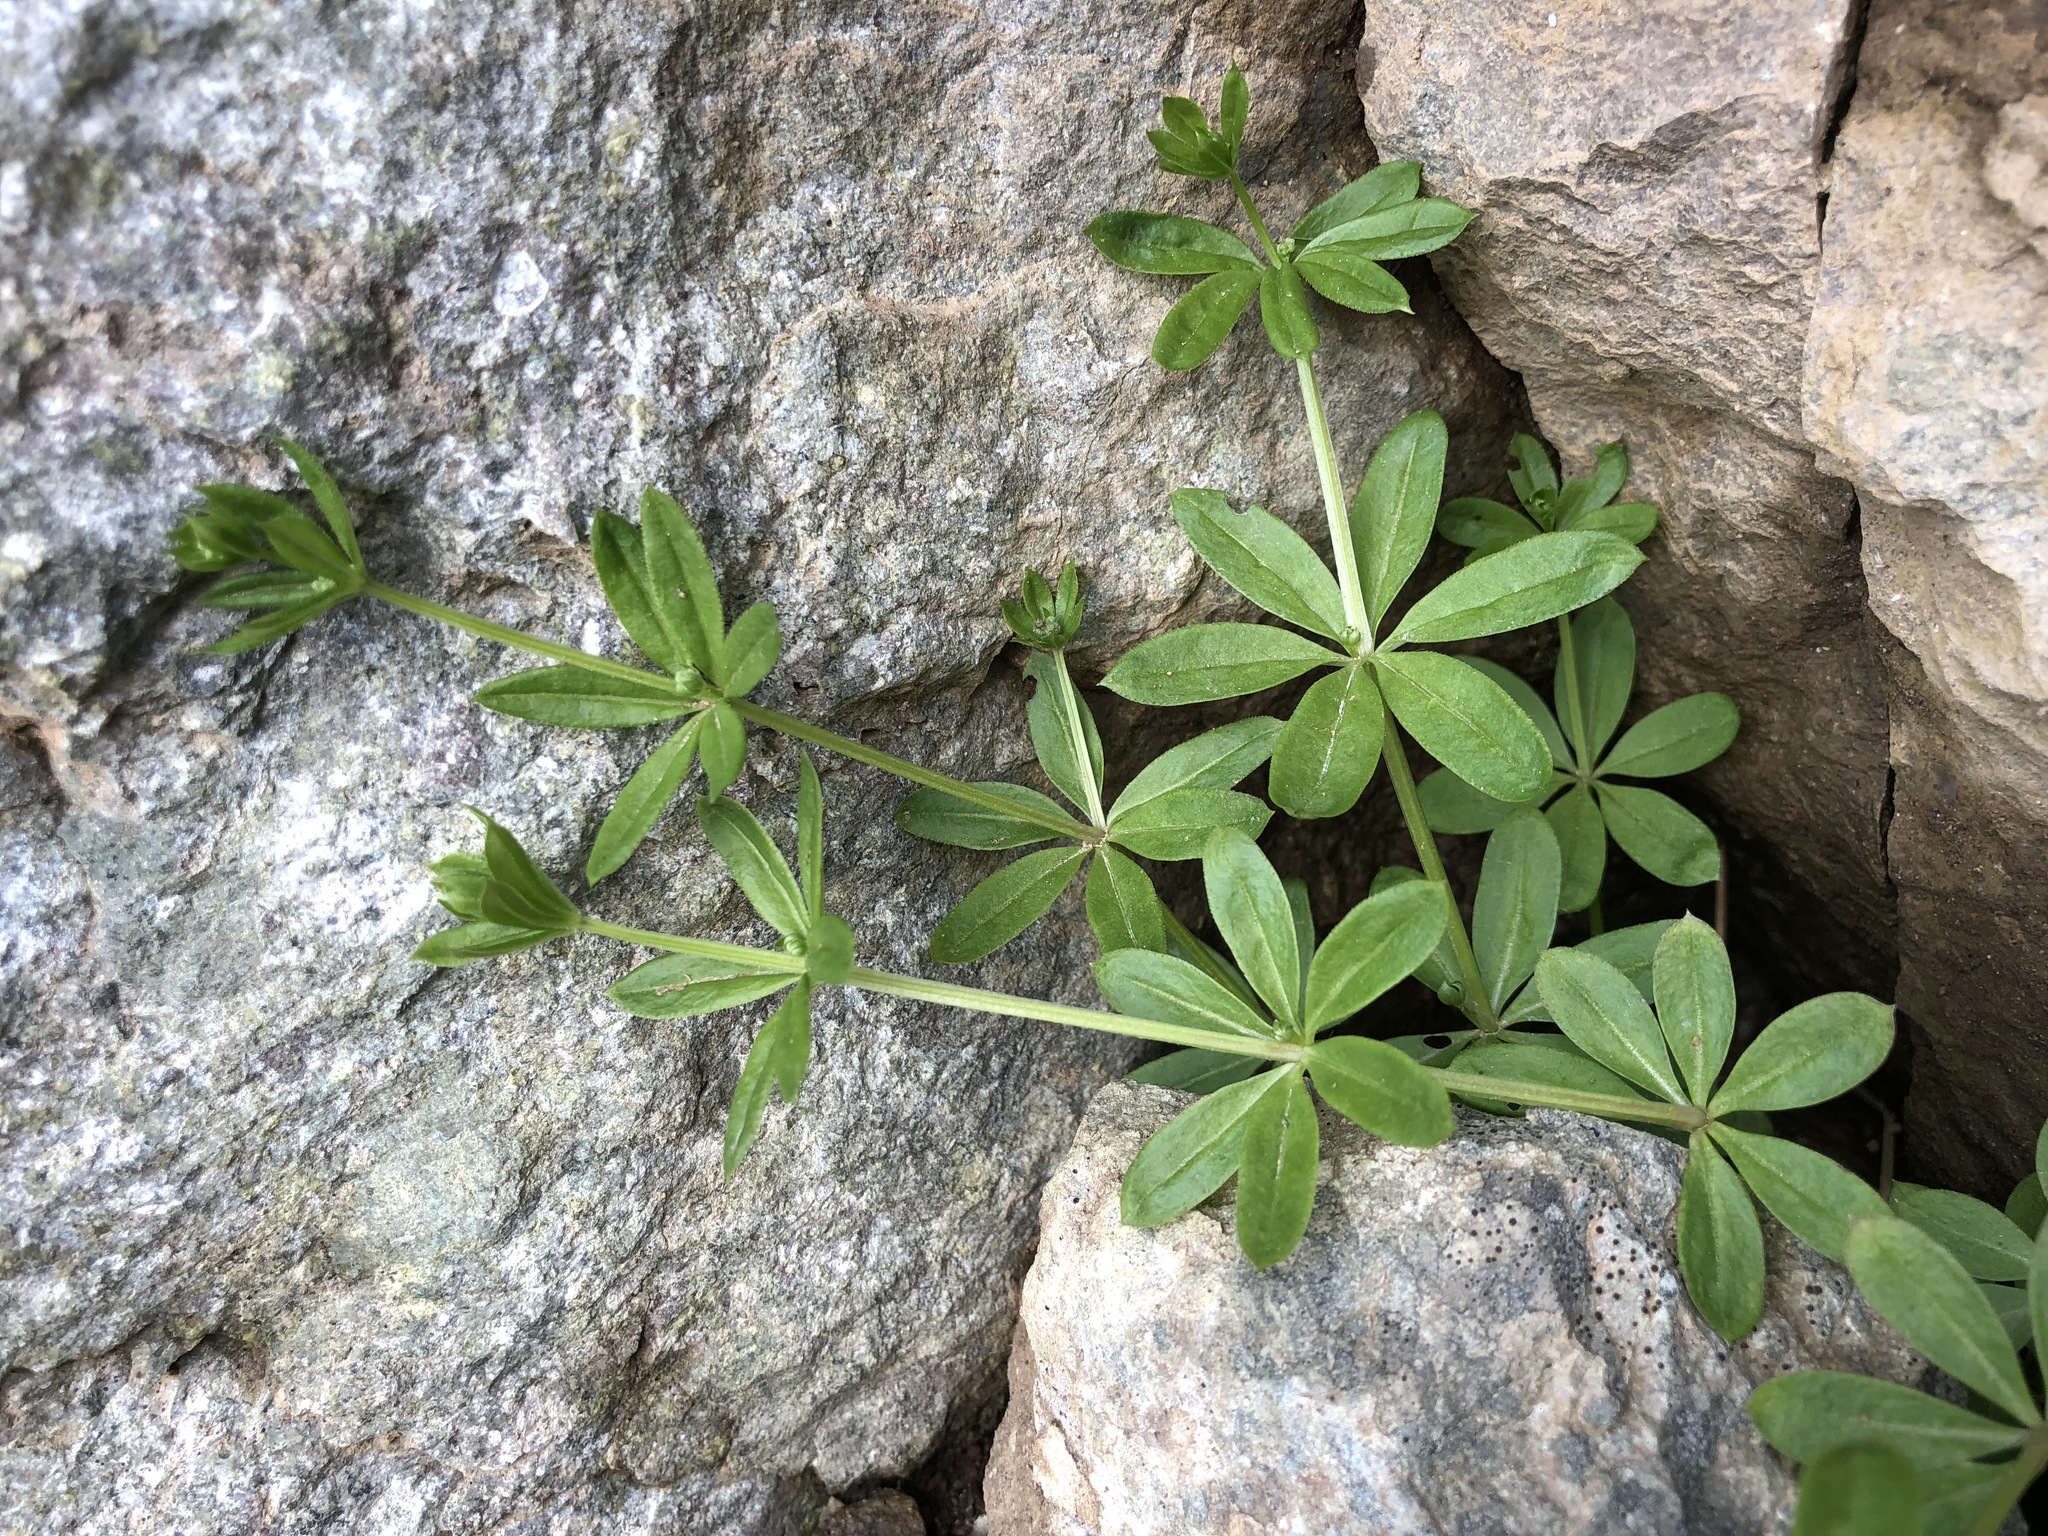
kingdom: Plantae
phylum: Tracheophyta
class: Magnoliopsida
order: Gentianales
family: Rubiaceae
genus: Galium
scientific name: Galium triflorum
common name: Fragrant bedstraw
